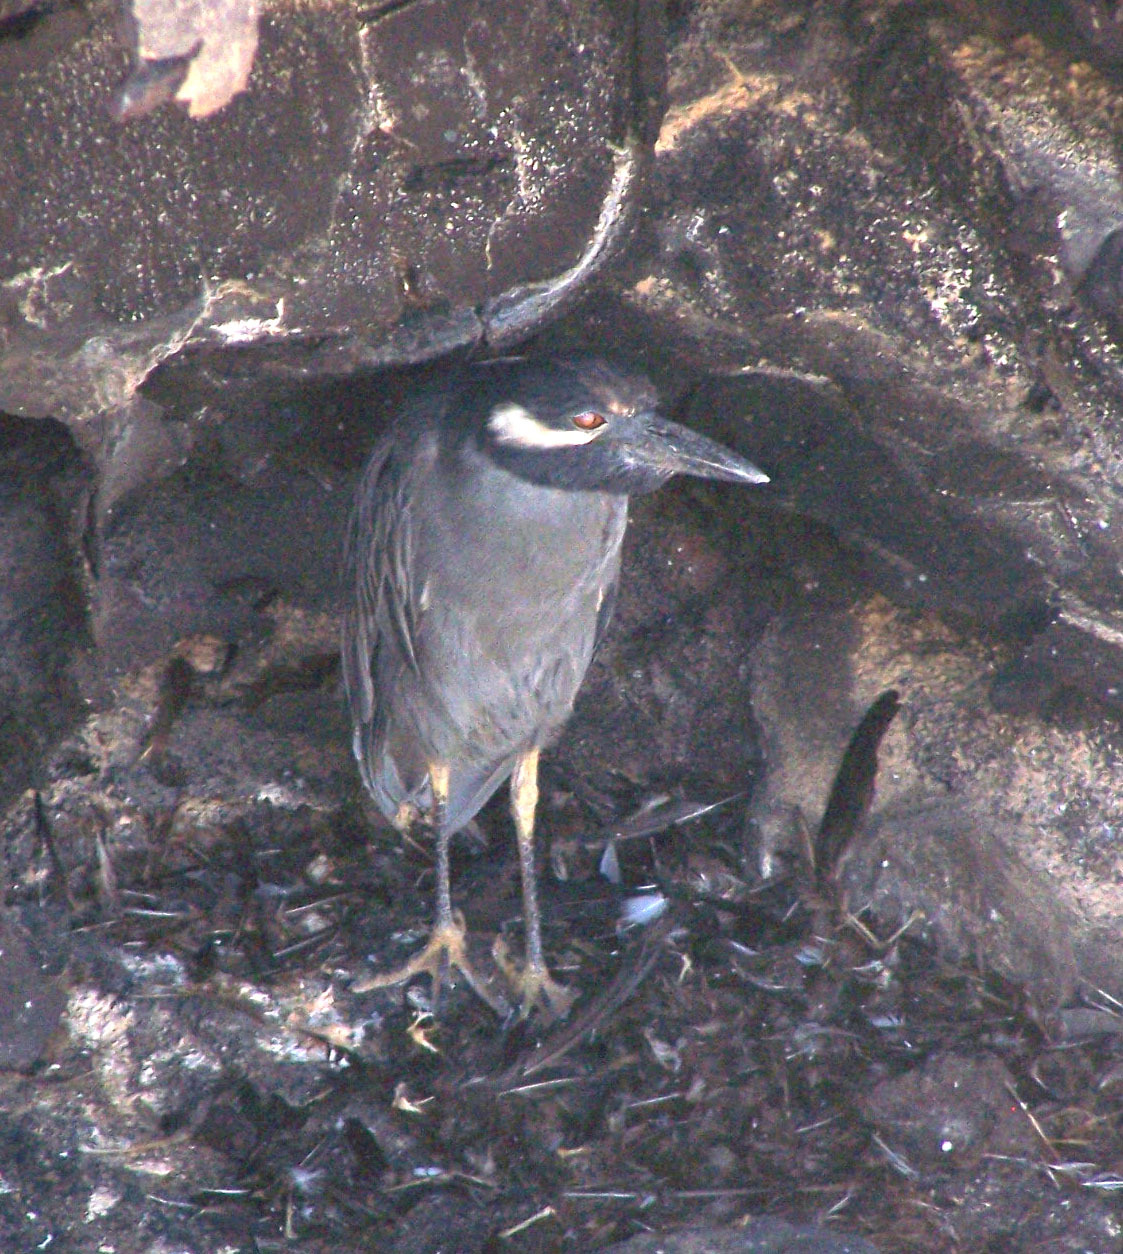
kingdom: Animalia
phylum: Chordata
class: Aves
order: Pelecaniformes
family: Ardeidae
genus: Nyctanassa
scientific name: Nyctanassa violacea
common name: Yellow-crowned night heron
